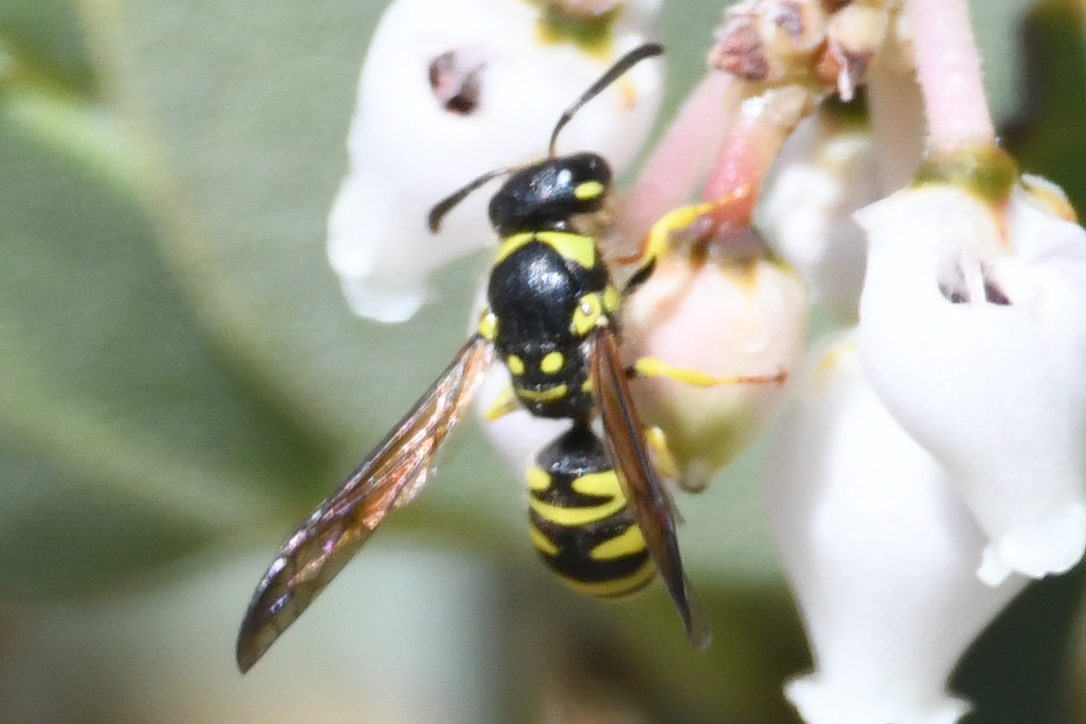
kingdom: Animalia
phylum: Arthropoda
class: Insecta
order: Hymenoptera
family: Vespidae
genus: Ancistrocerus
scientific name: Ancistrocerus adiabatus
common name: Bramble mason wasp
